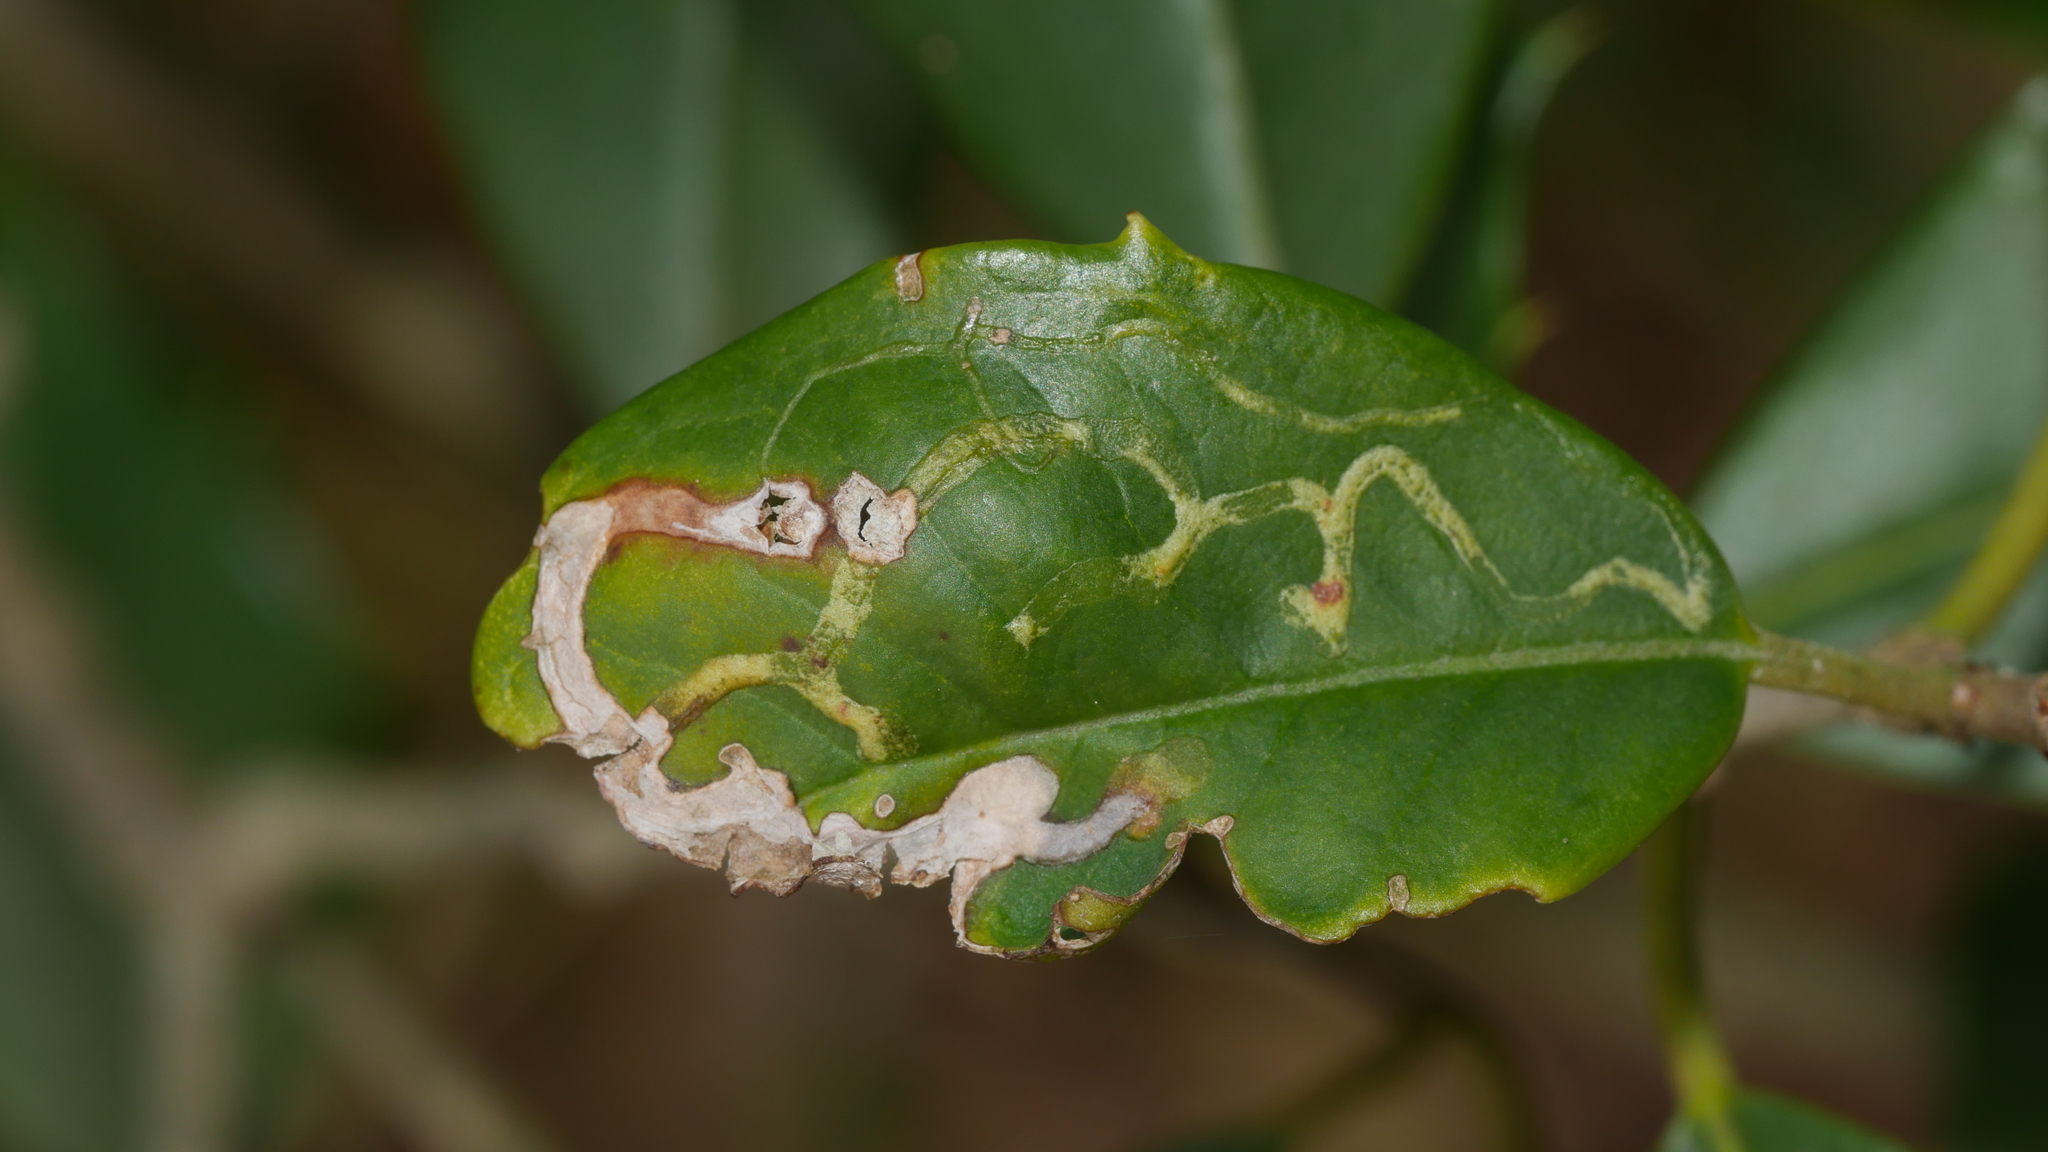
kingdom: Animalia
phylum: Arthropoda
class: Insecta
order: Diptera
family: Agromyzidae
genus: Phytomyza
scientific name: Phytomyza opacae
